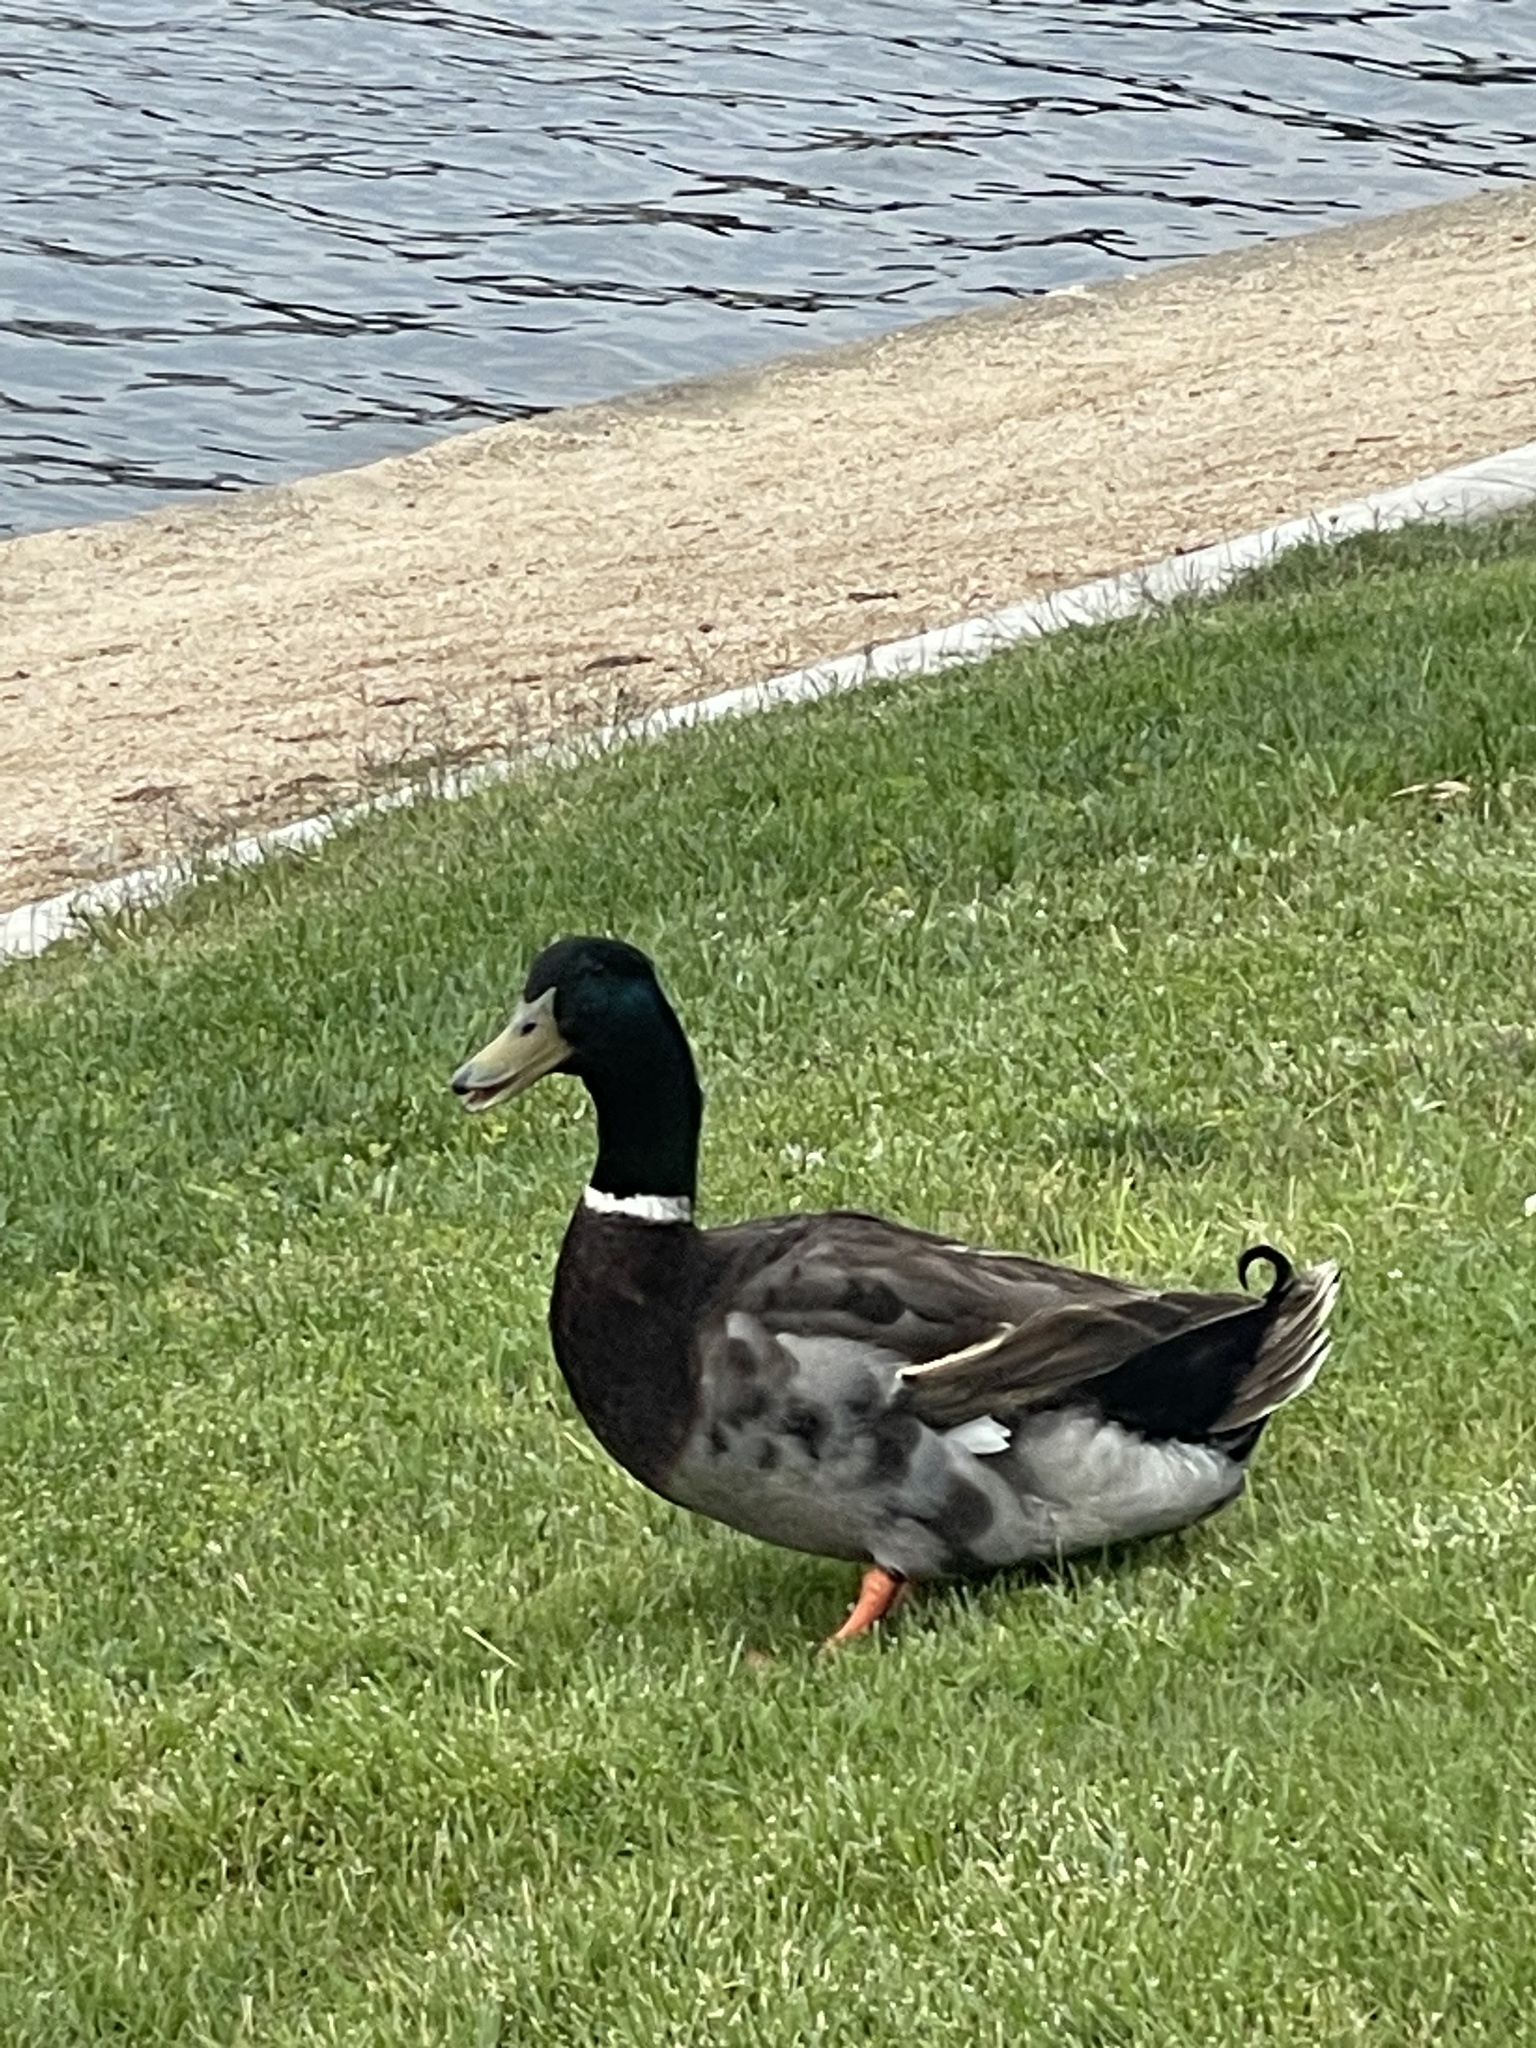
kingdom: Animalia
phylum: Chordata
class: Aves
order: Anseriformes
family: Anatidae
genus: Anas
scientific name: Anas platyrhynchos
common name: Mallard
